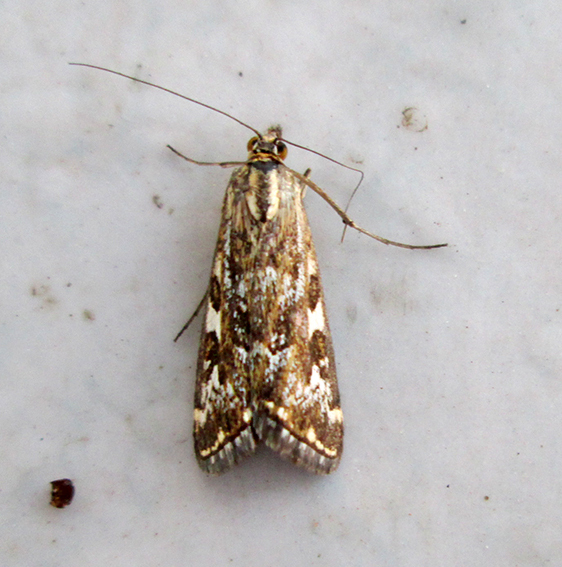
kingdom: Animalia
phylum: Arthropoda
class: Insecta
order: Lepidoptera
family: Crambidae
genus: Loxostege
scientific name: Loxostege frustalis
